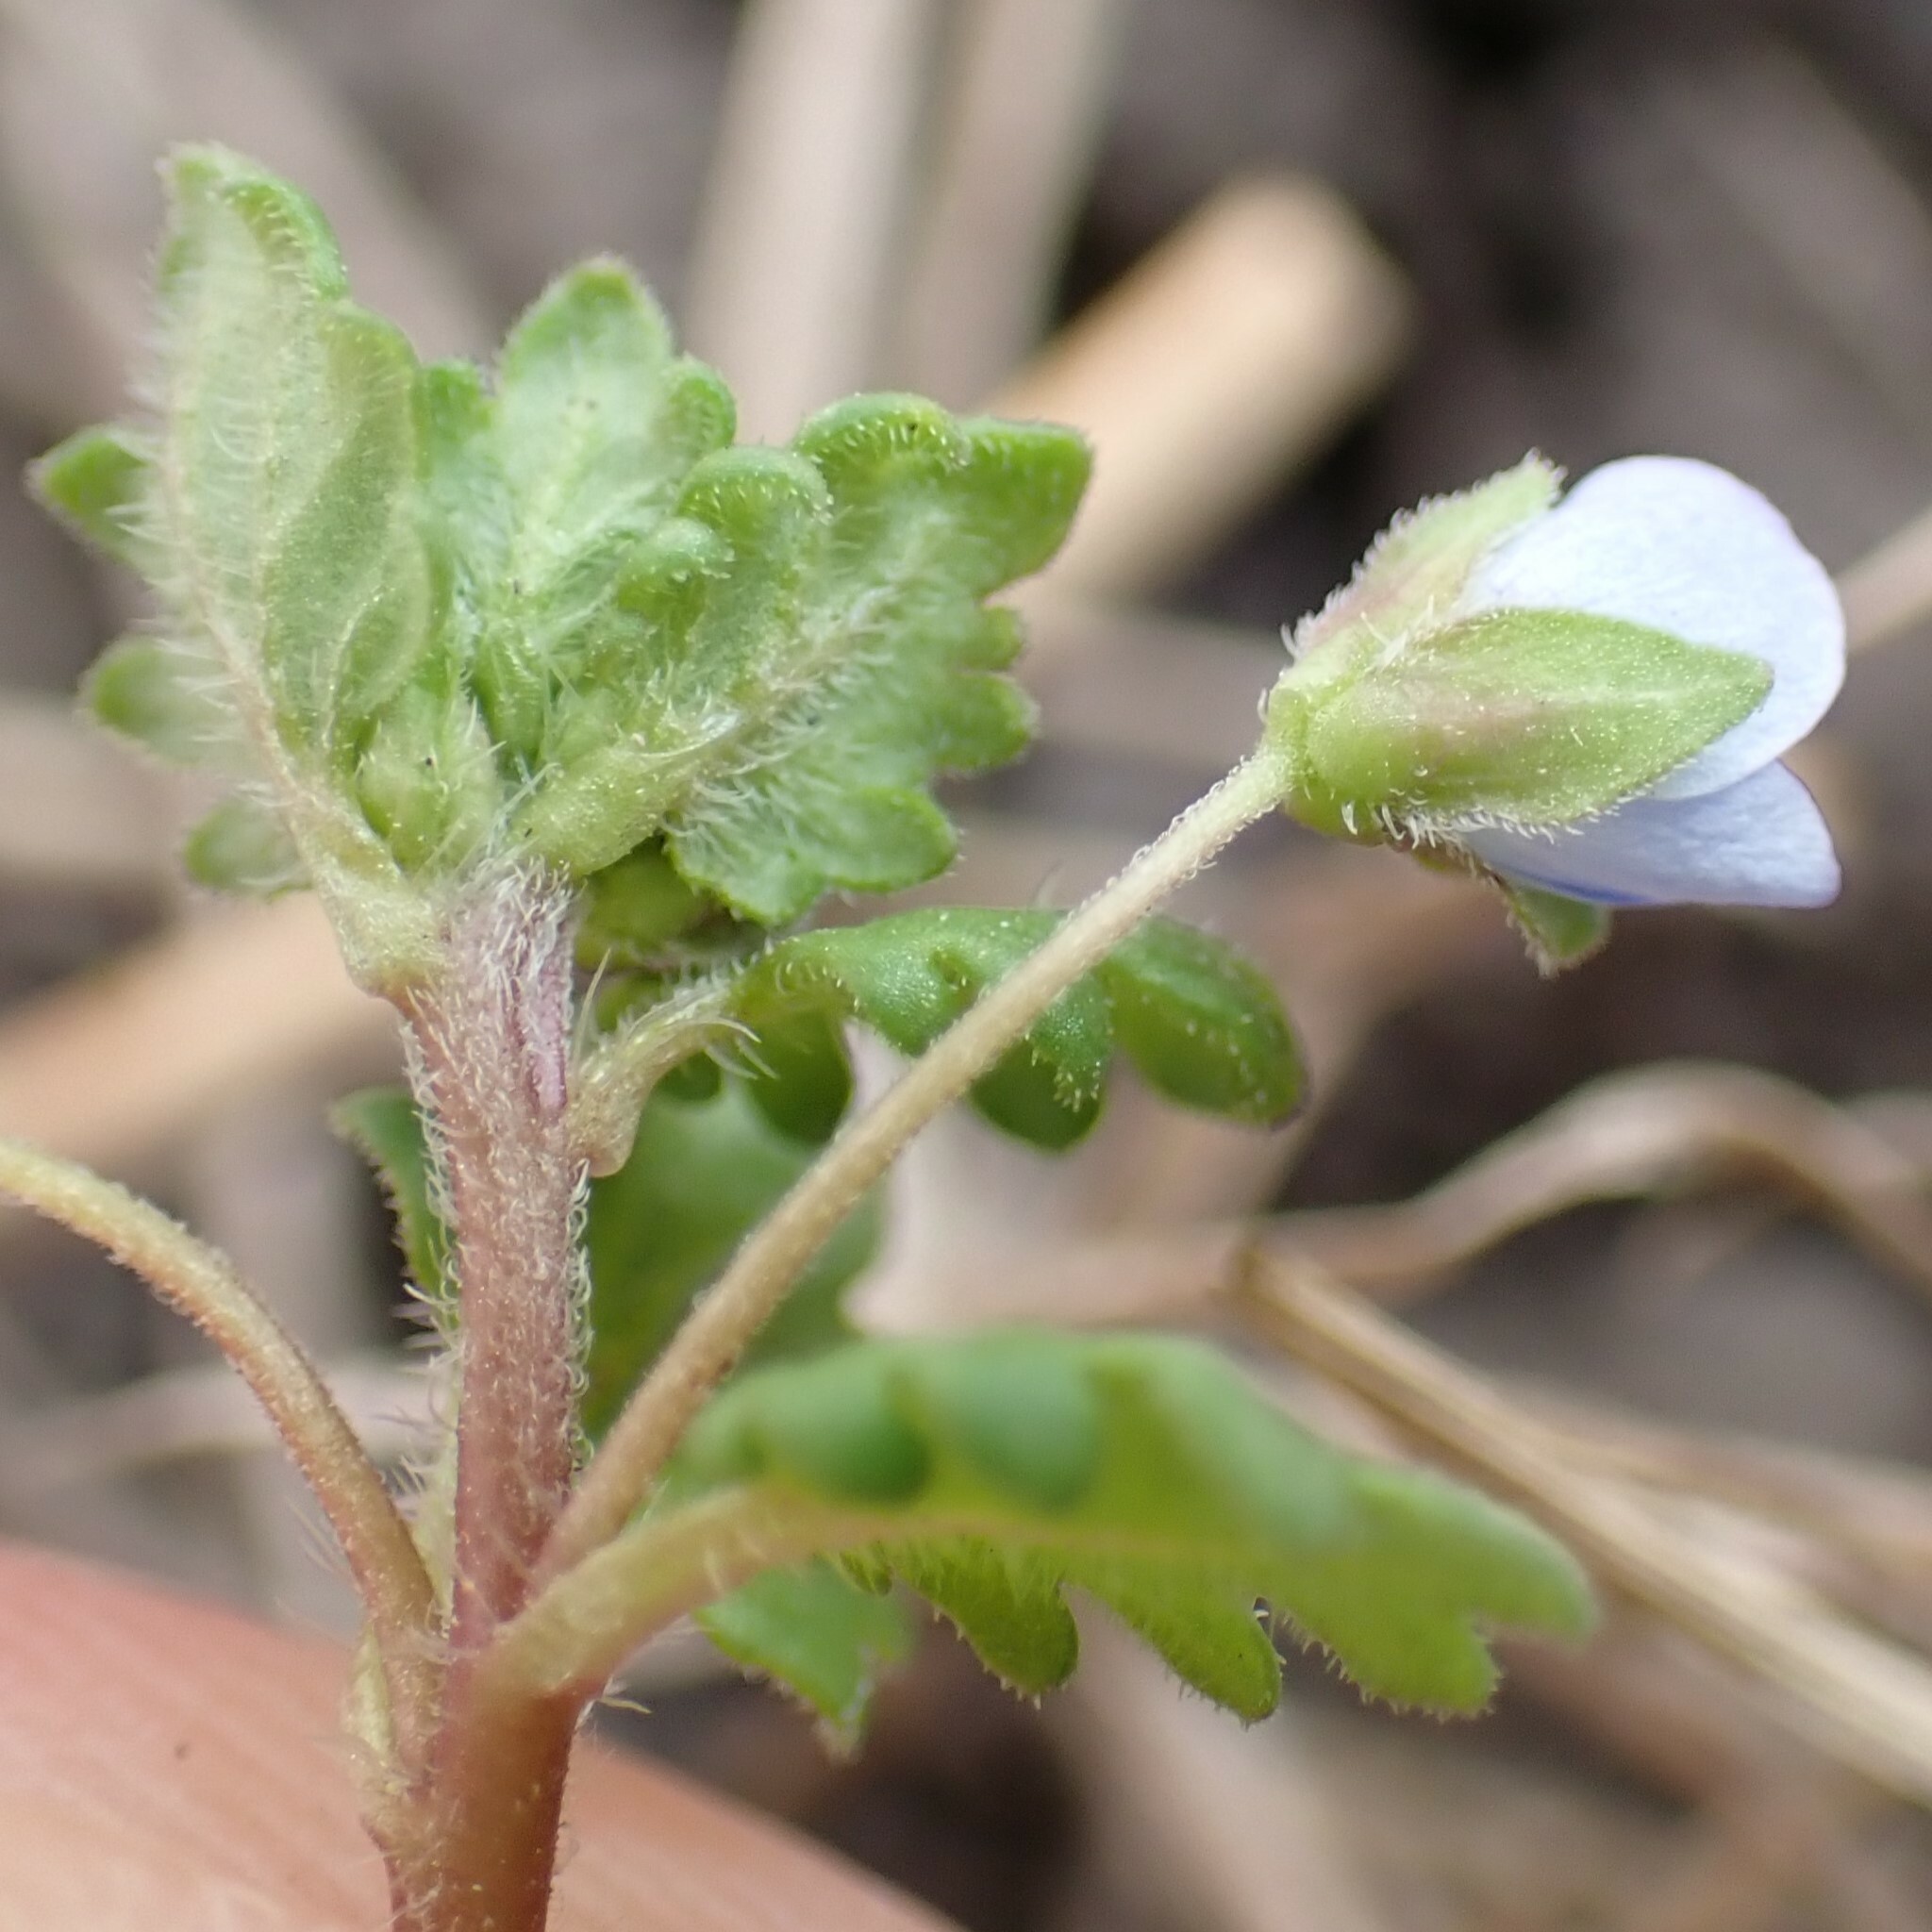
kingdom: Plantae
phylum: Tracheophyta
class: Magnoliopsida
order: Lamiales
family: Plantaginaceae
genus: Veronica
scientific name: Veronica polita
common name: Grey field-speedwell
